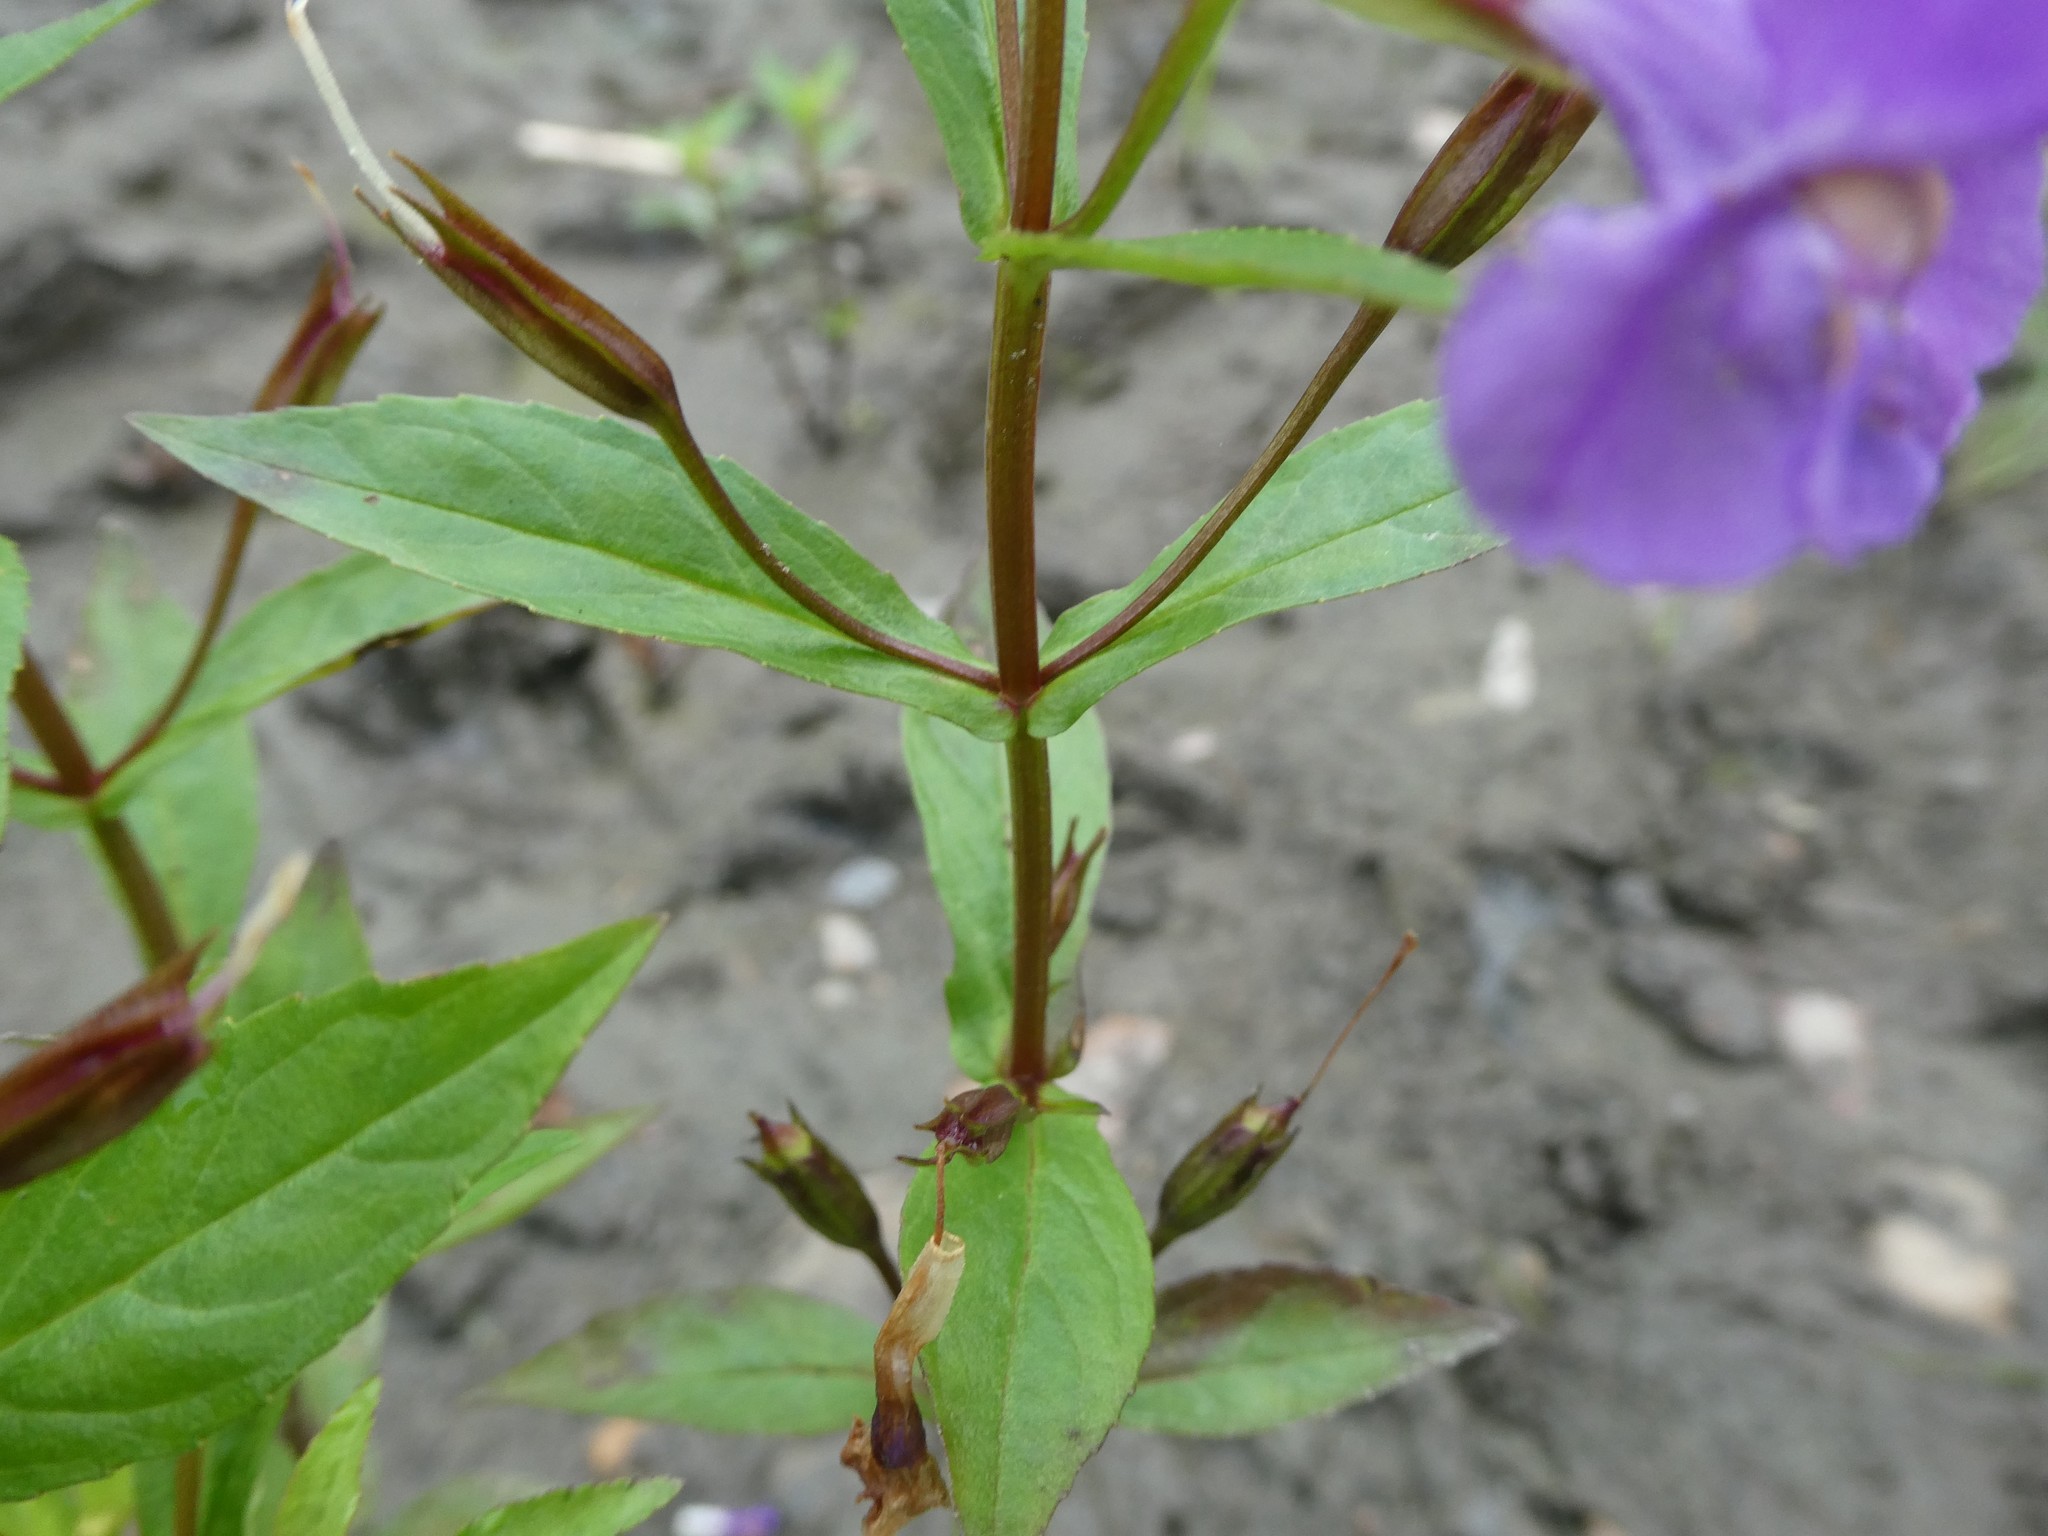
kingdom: Plantae
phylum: Tracheophyta
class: Magnoliopsida
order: Lamiales
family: Phrymaceae
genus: Mimulus
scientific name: Mimulus ringens
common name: Allegheny monkeyflower
